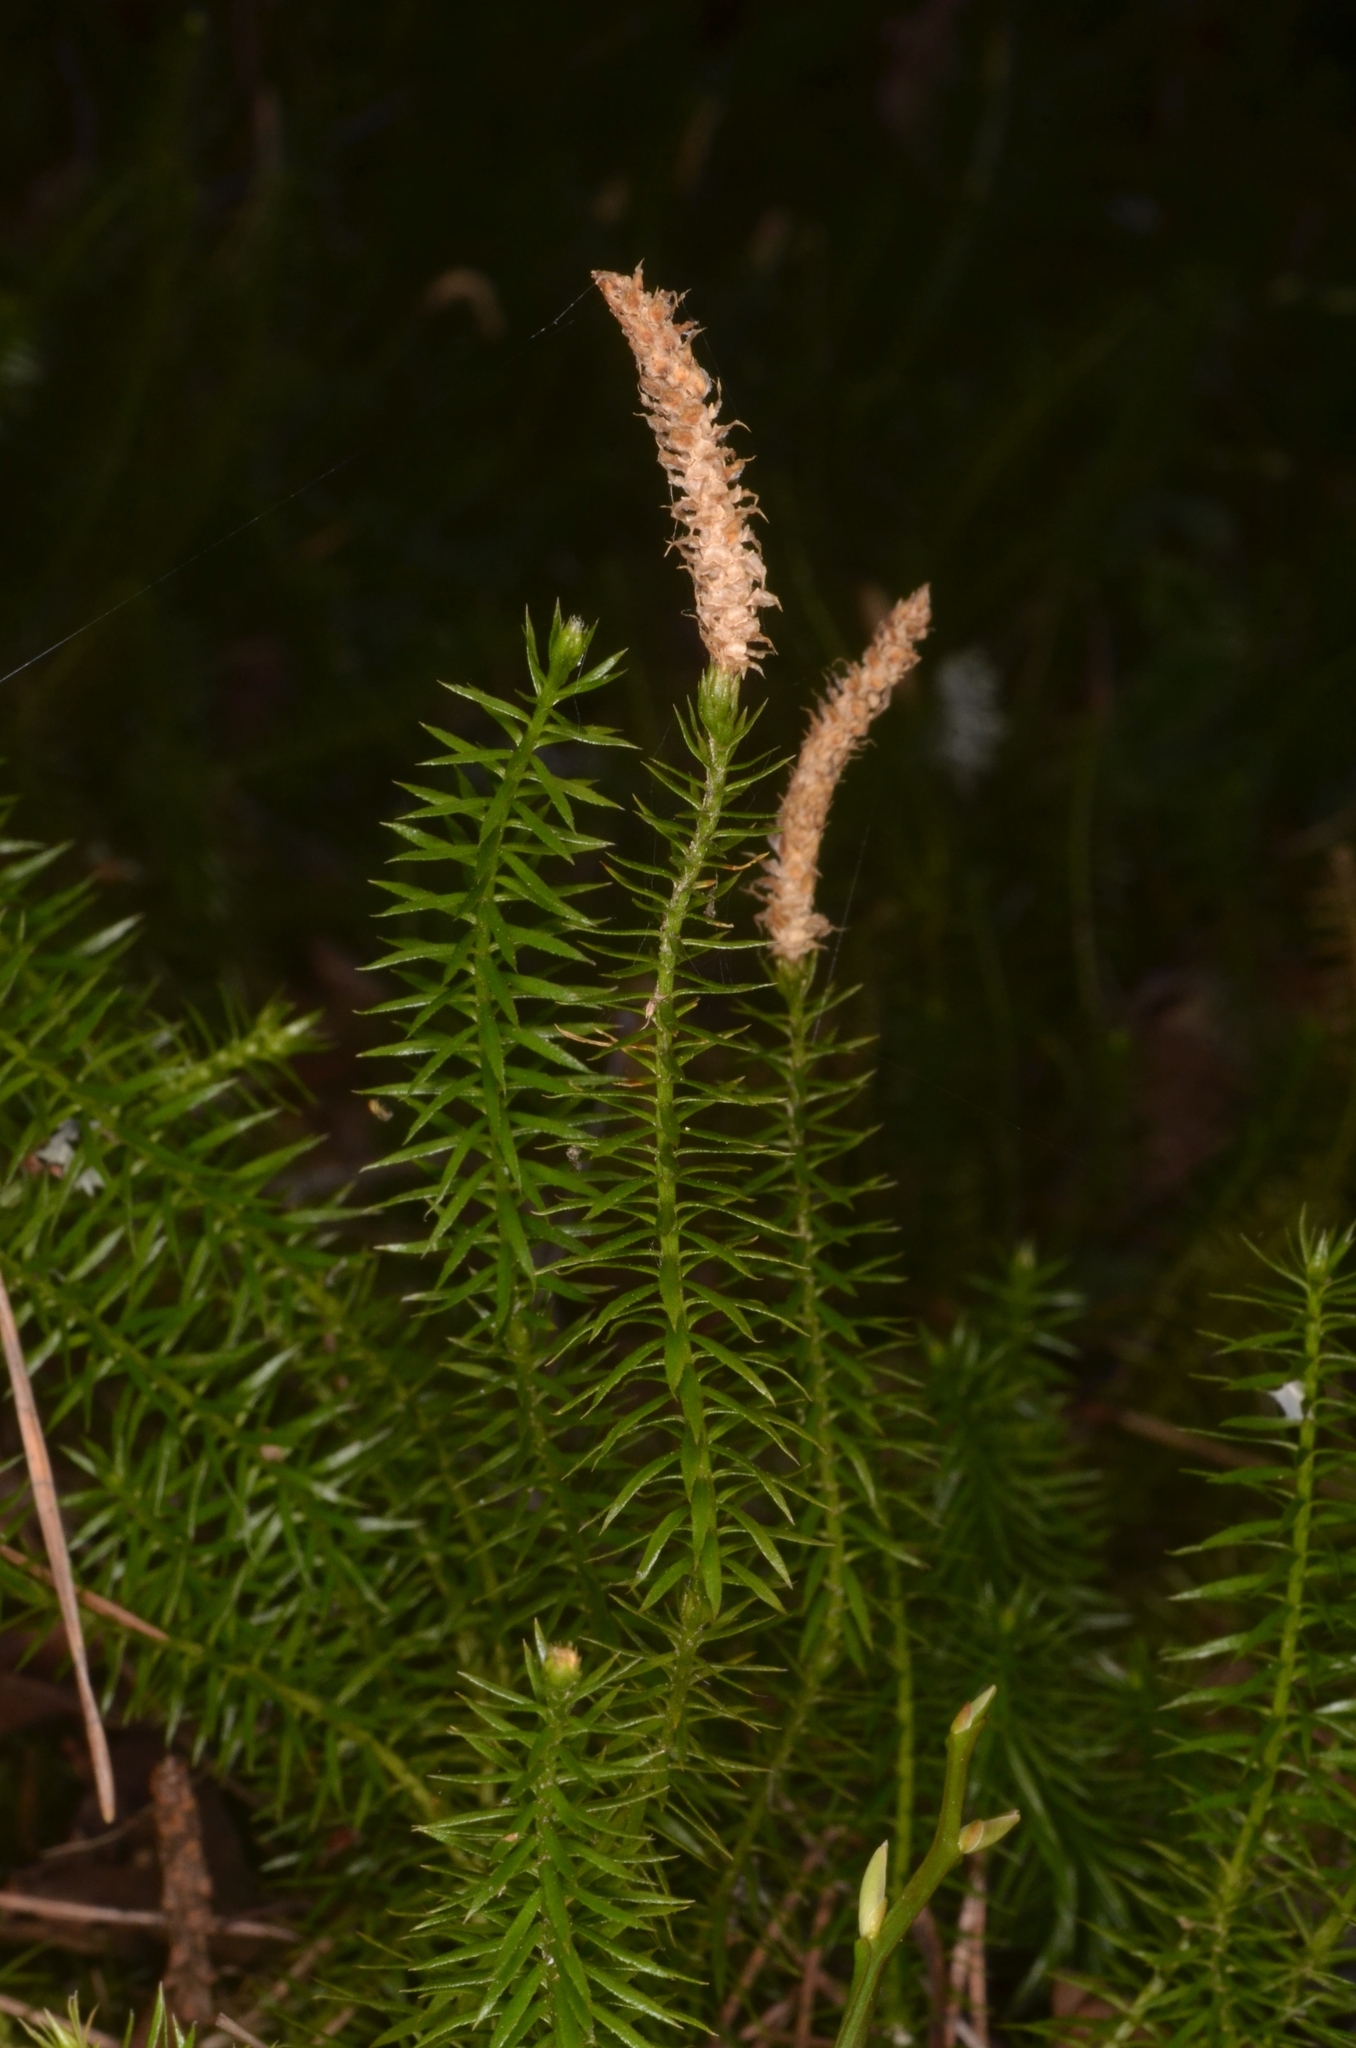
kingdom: Plantae
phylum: Tracheophyta
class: Lycopodiopsida
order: Lycopodiales
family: Lycopodiaceae
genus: Spinulum
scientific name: Spinulum annotinum
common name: Interrupted club-moss
